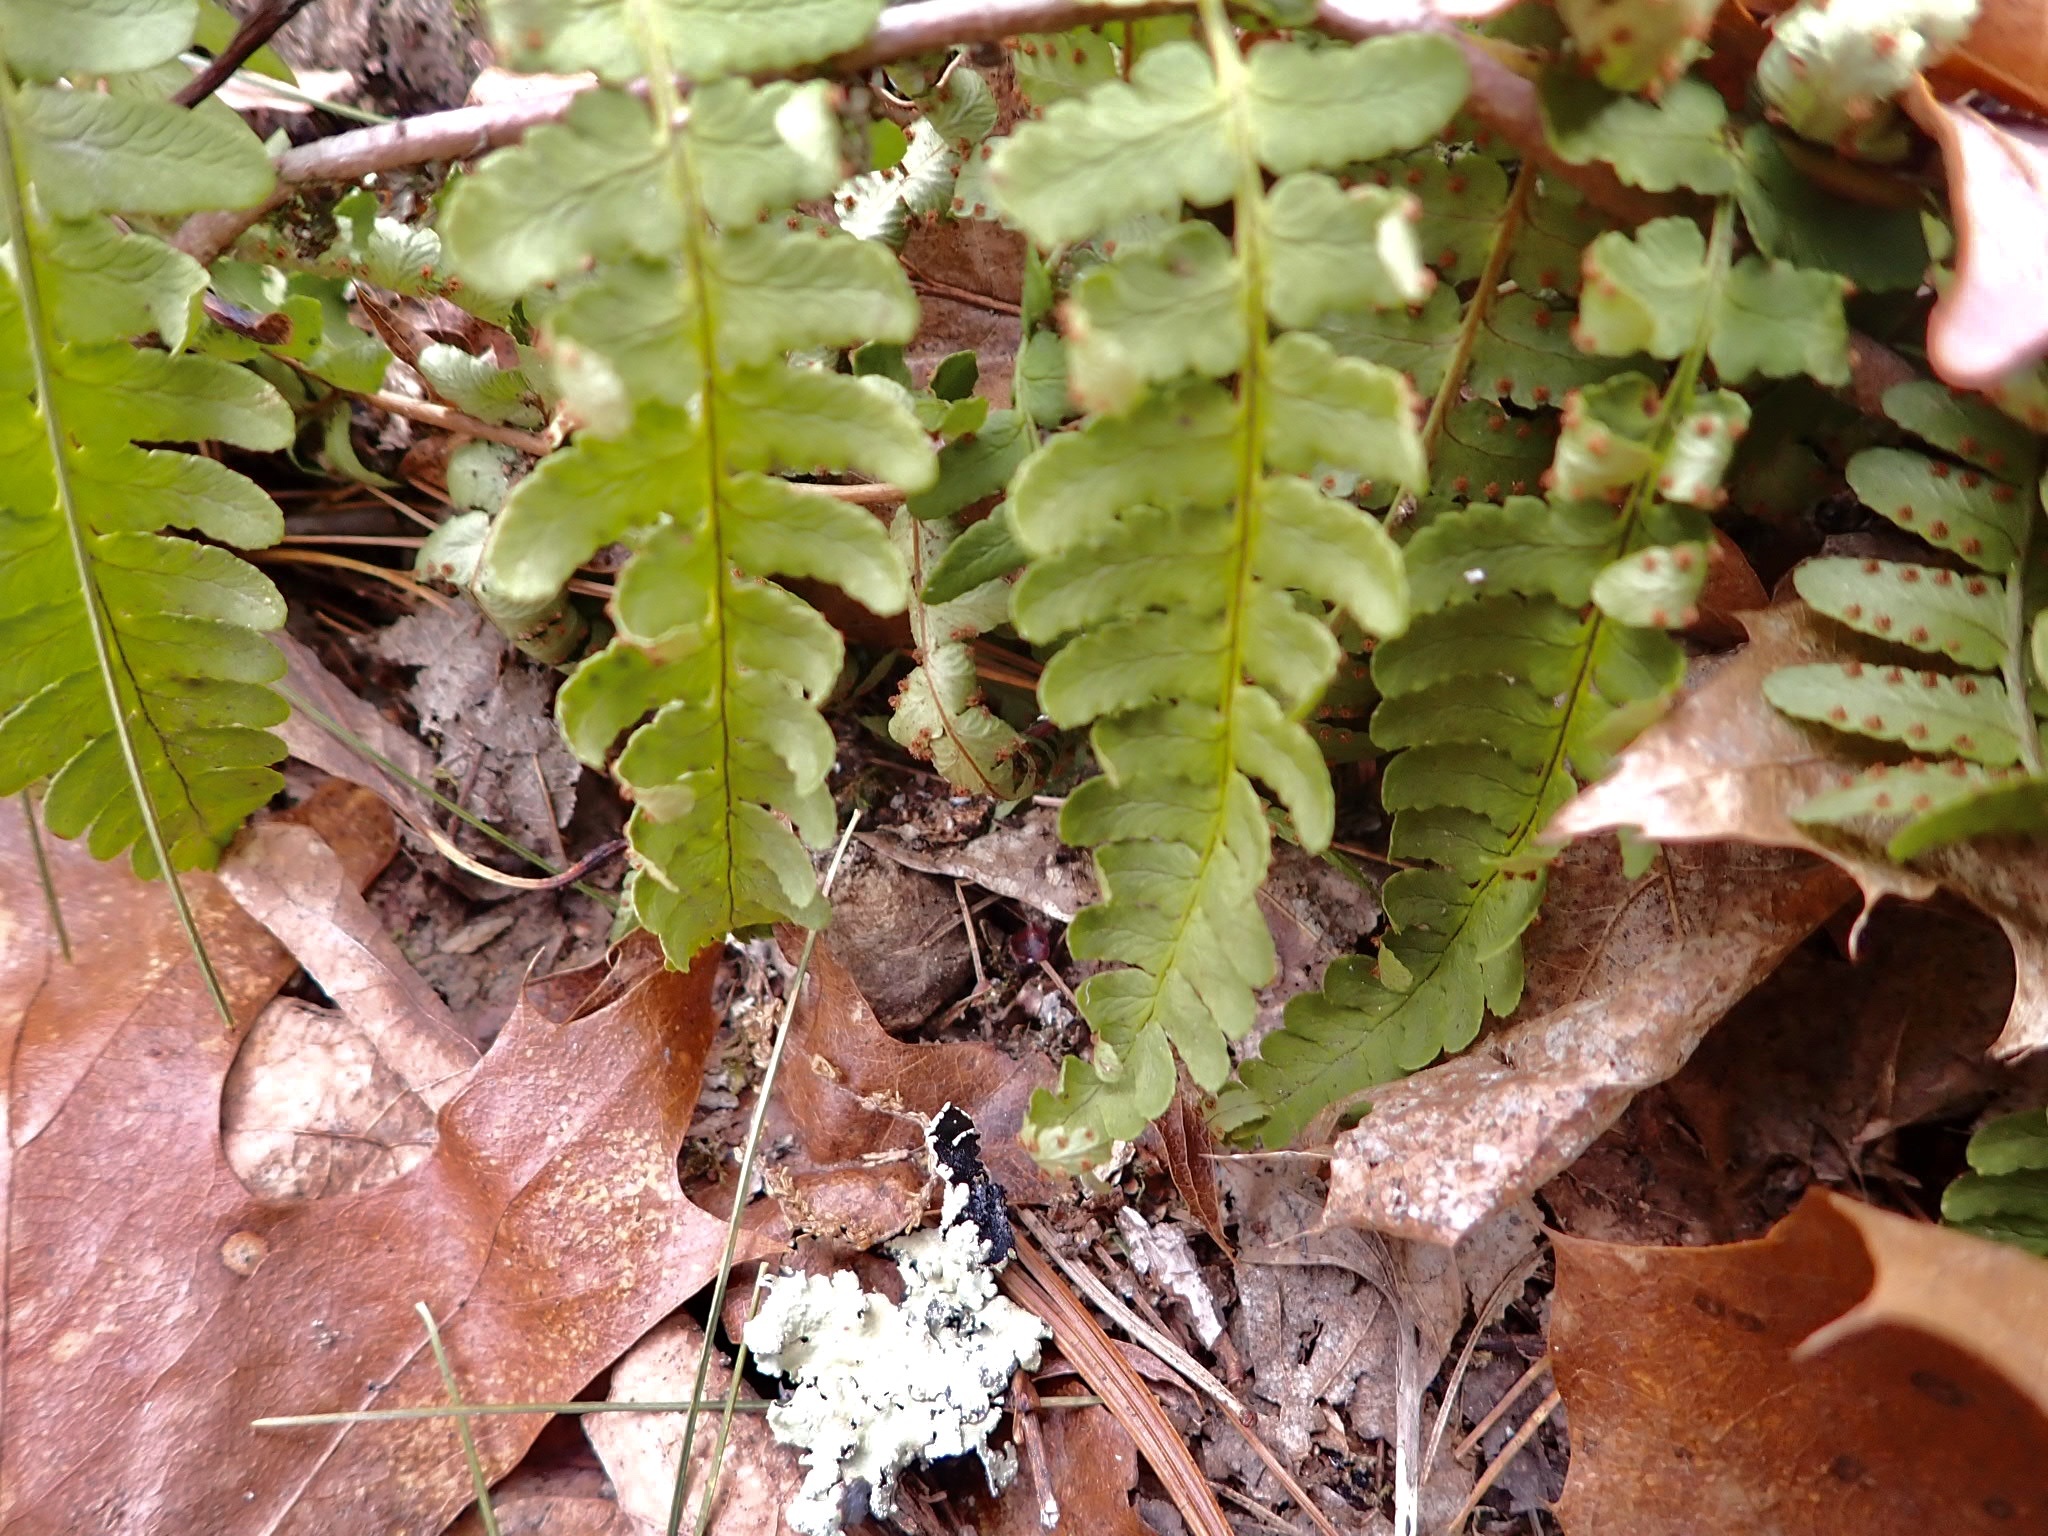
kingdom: Plantae
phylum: Tracheophyta
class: Polypodiopsida
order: Polypodiales
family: Dryopteridaceae
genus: Dryopteris
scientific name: Dryopteris marginalis
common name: Marginal wood fern
